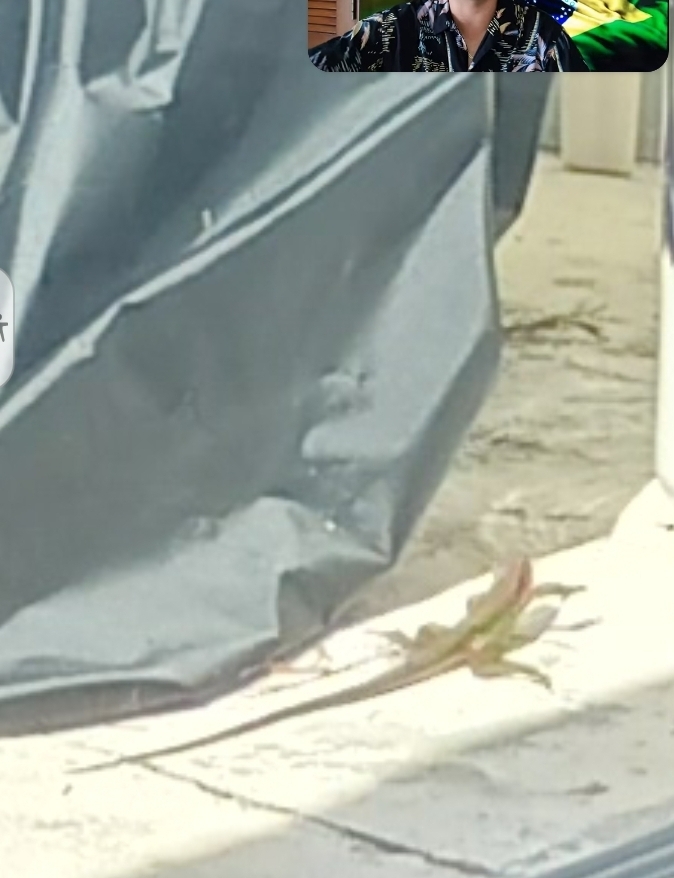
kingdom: Animalia
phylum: Chordata
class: Squamata
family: Teiidae
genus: Ameiva
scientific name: Ameiva ameiva
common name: Giant ameiva
